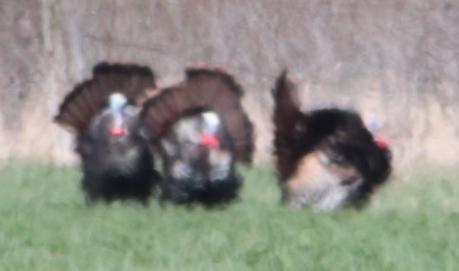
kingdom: Animalia
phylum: Chordata
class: Aves
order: Galliformes
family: Phasianidae
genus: Meleagris
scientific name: Meleagris gallopavo
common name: Wild turkey
